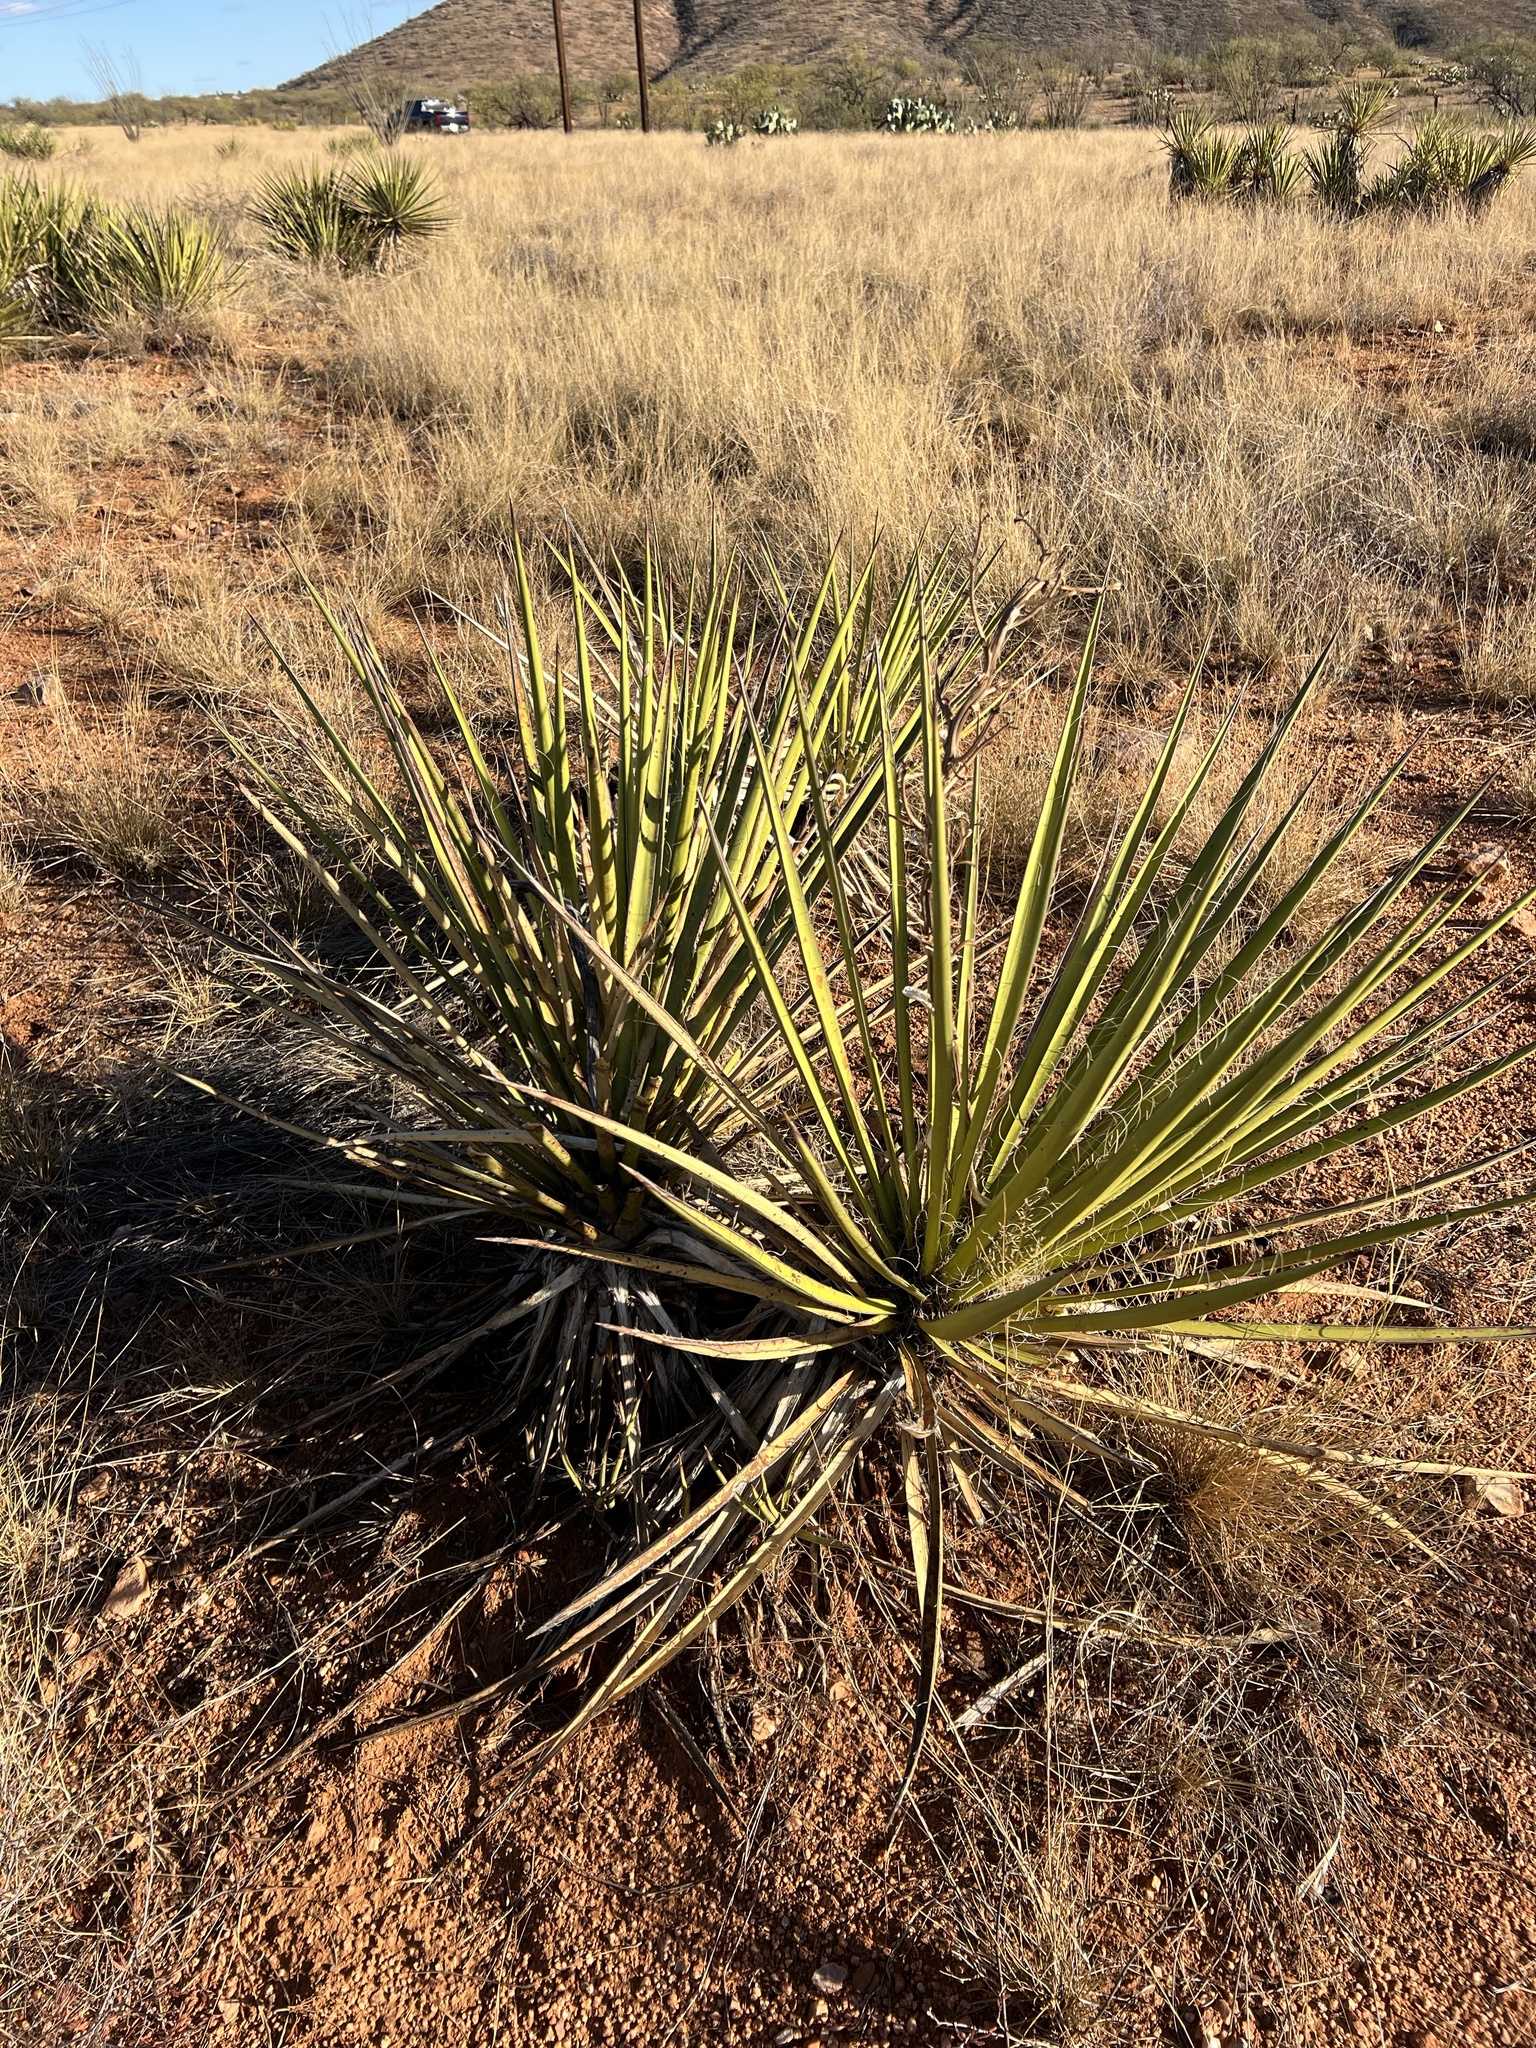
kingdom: Plantae
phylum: Tracheophyta
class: Liliopsida
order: Asparagales
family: Asparagaceae
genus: Yucca
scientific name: Yucca baccata
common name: Banana yucca
